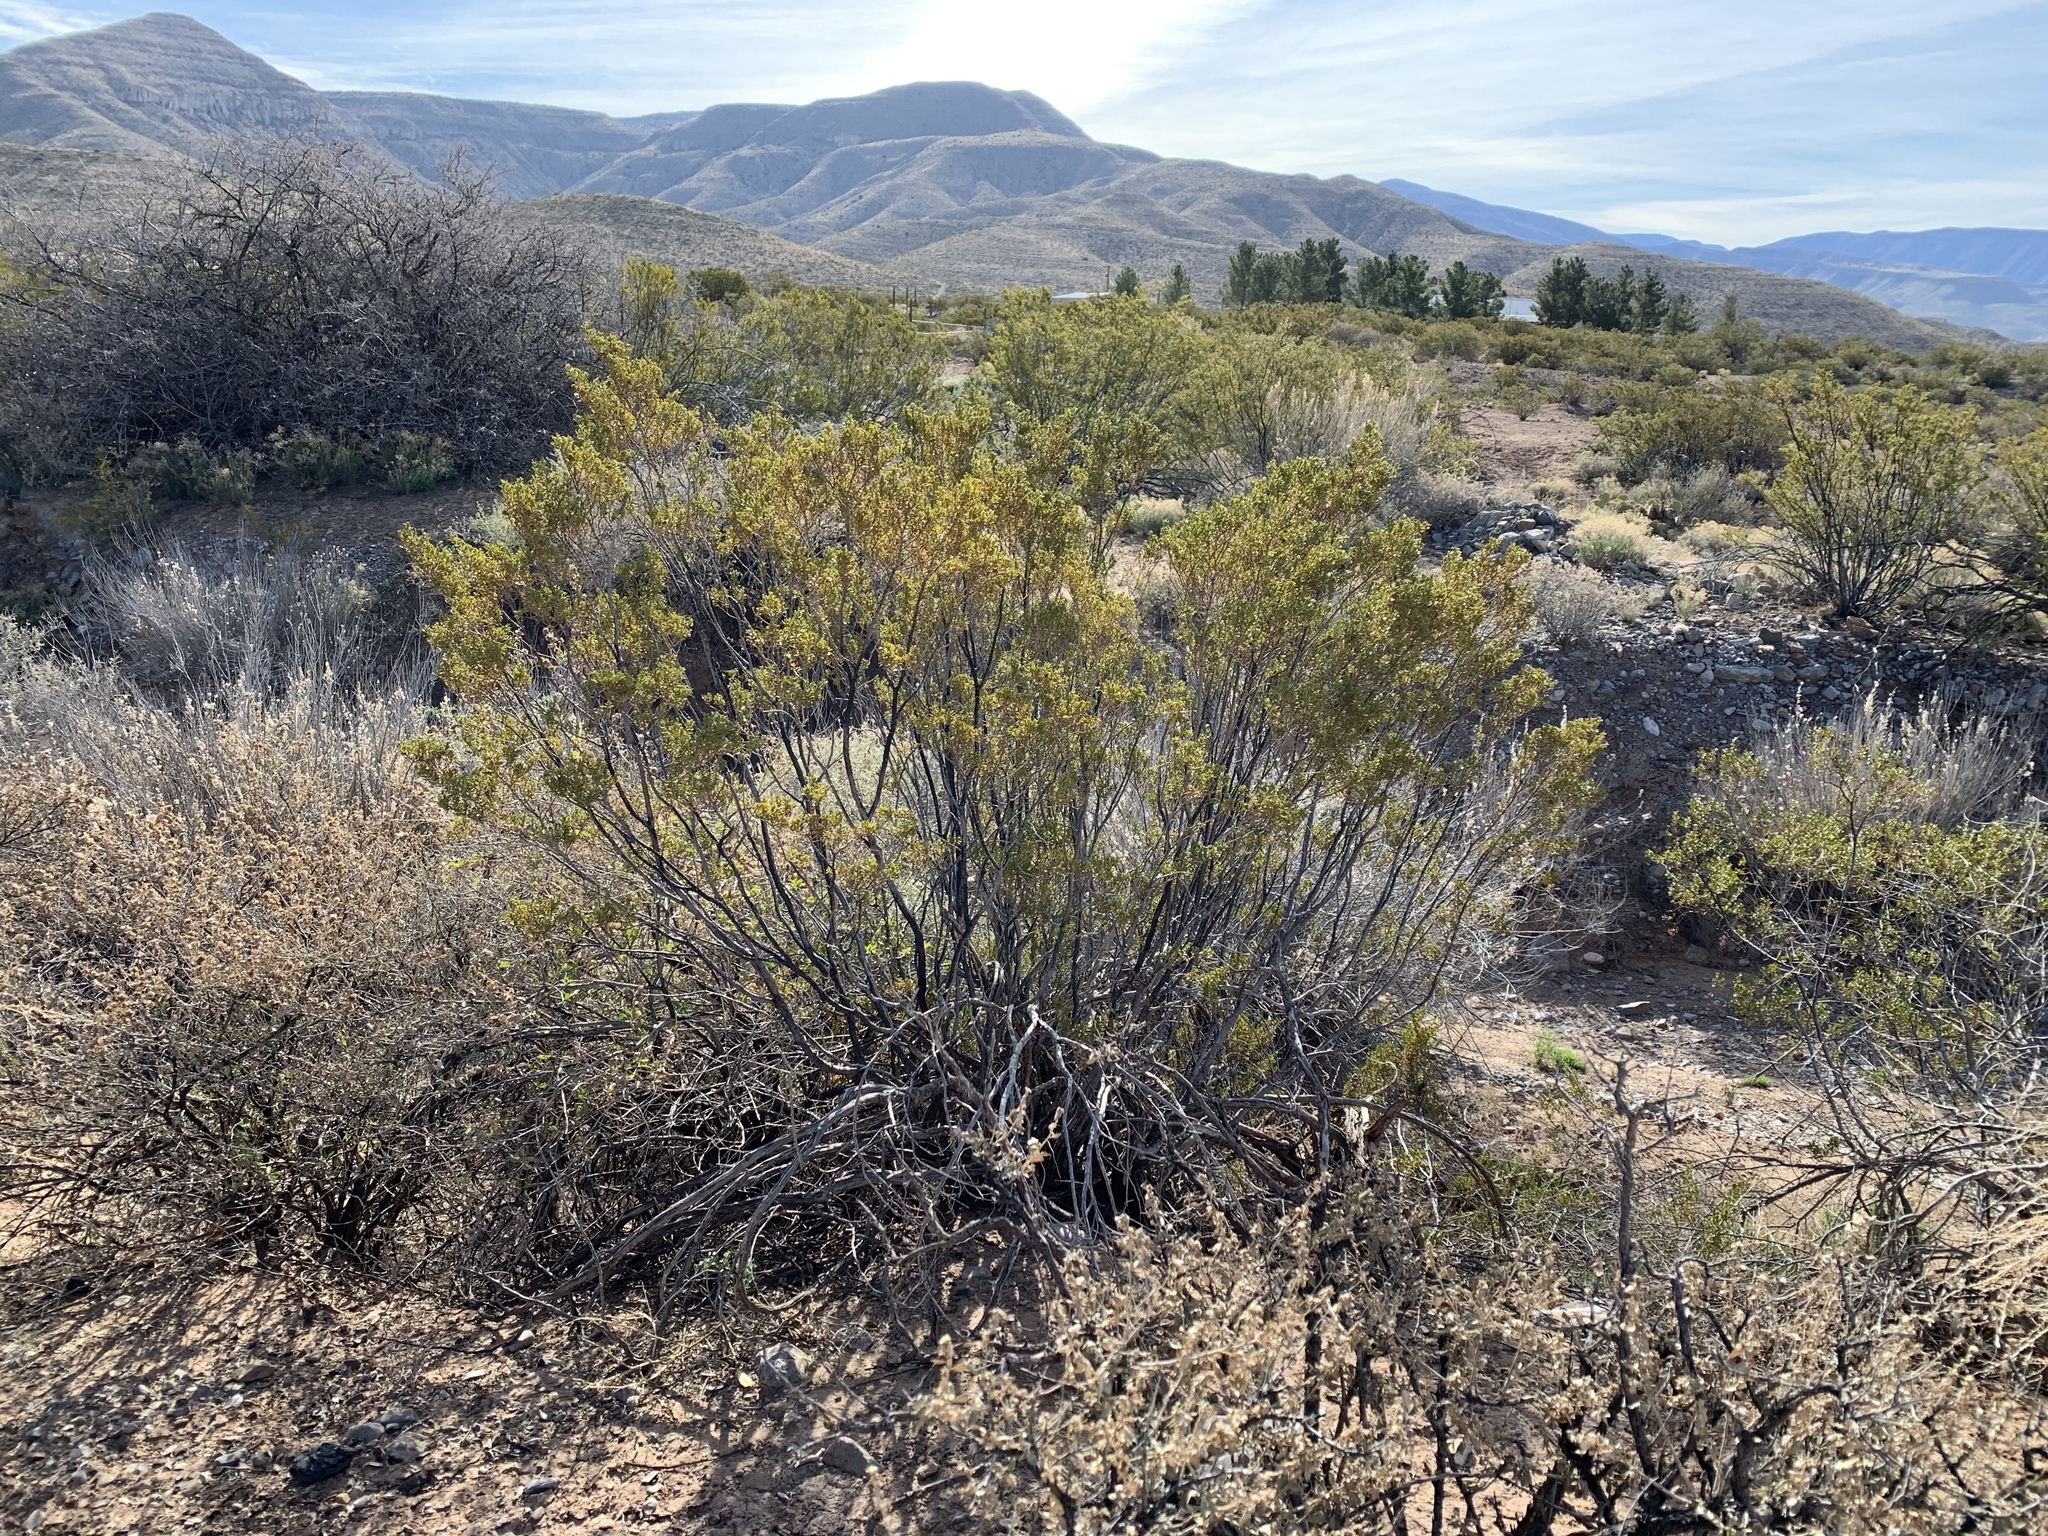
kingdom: Plantae
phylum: Tracheophyta
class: Magnoliopsida
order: Zygophyllales
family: Zygophyllaceae
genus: Larrea
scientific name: Larrea tridentata
